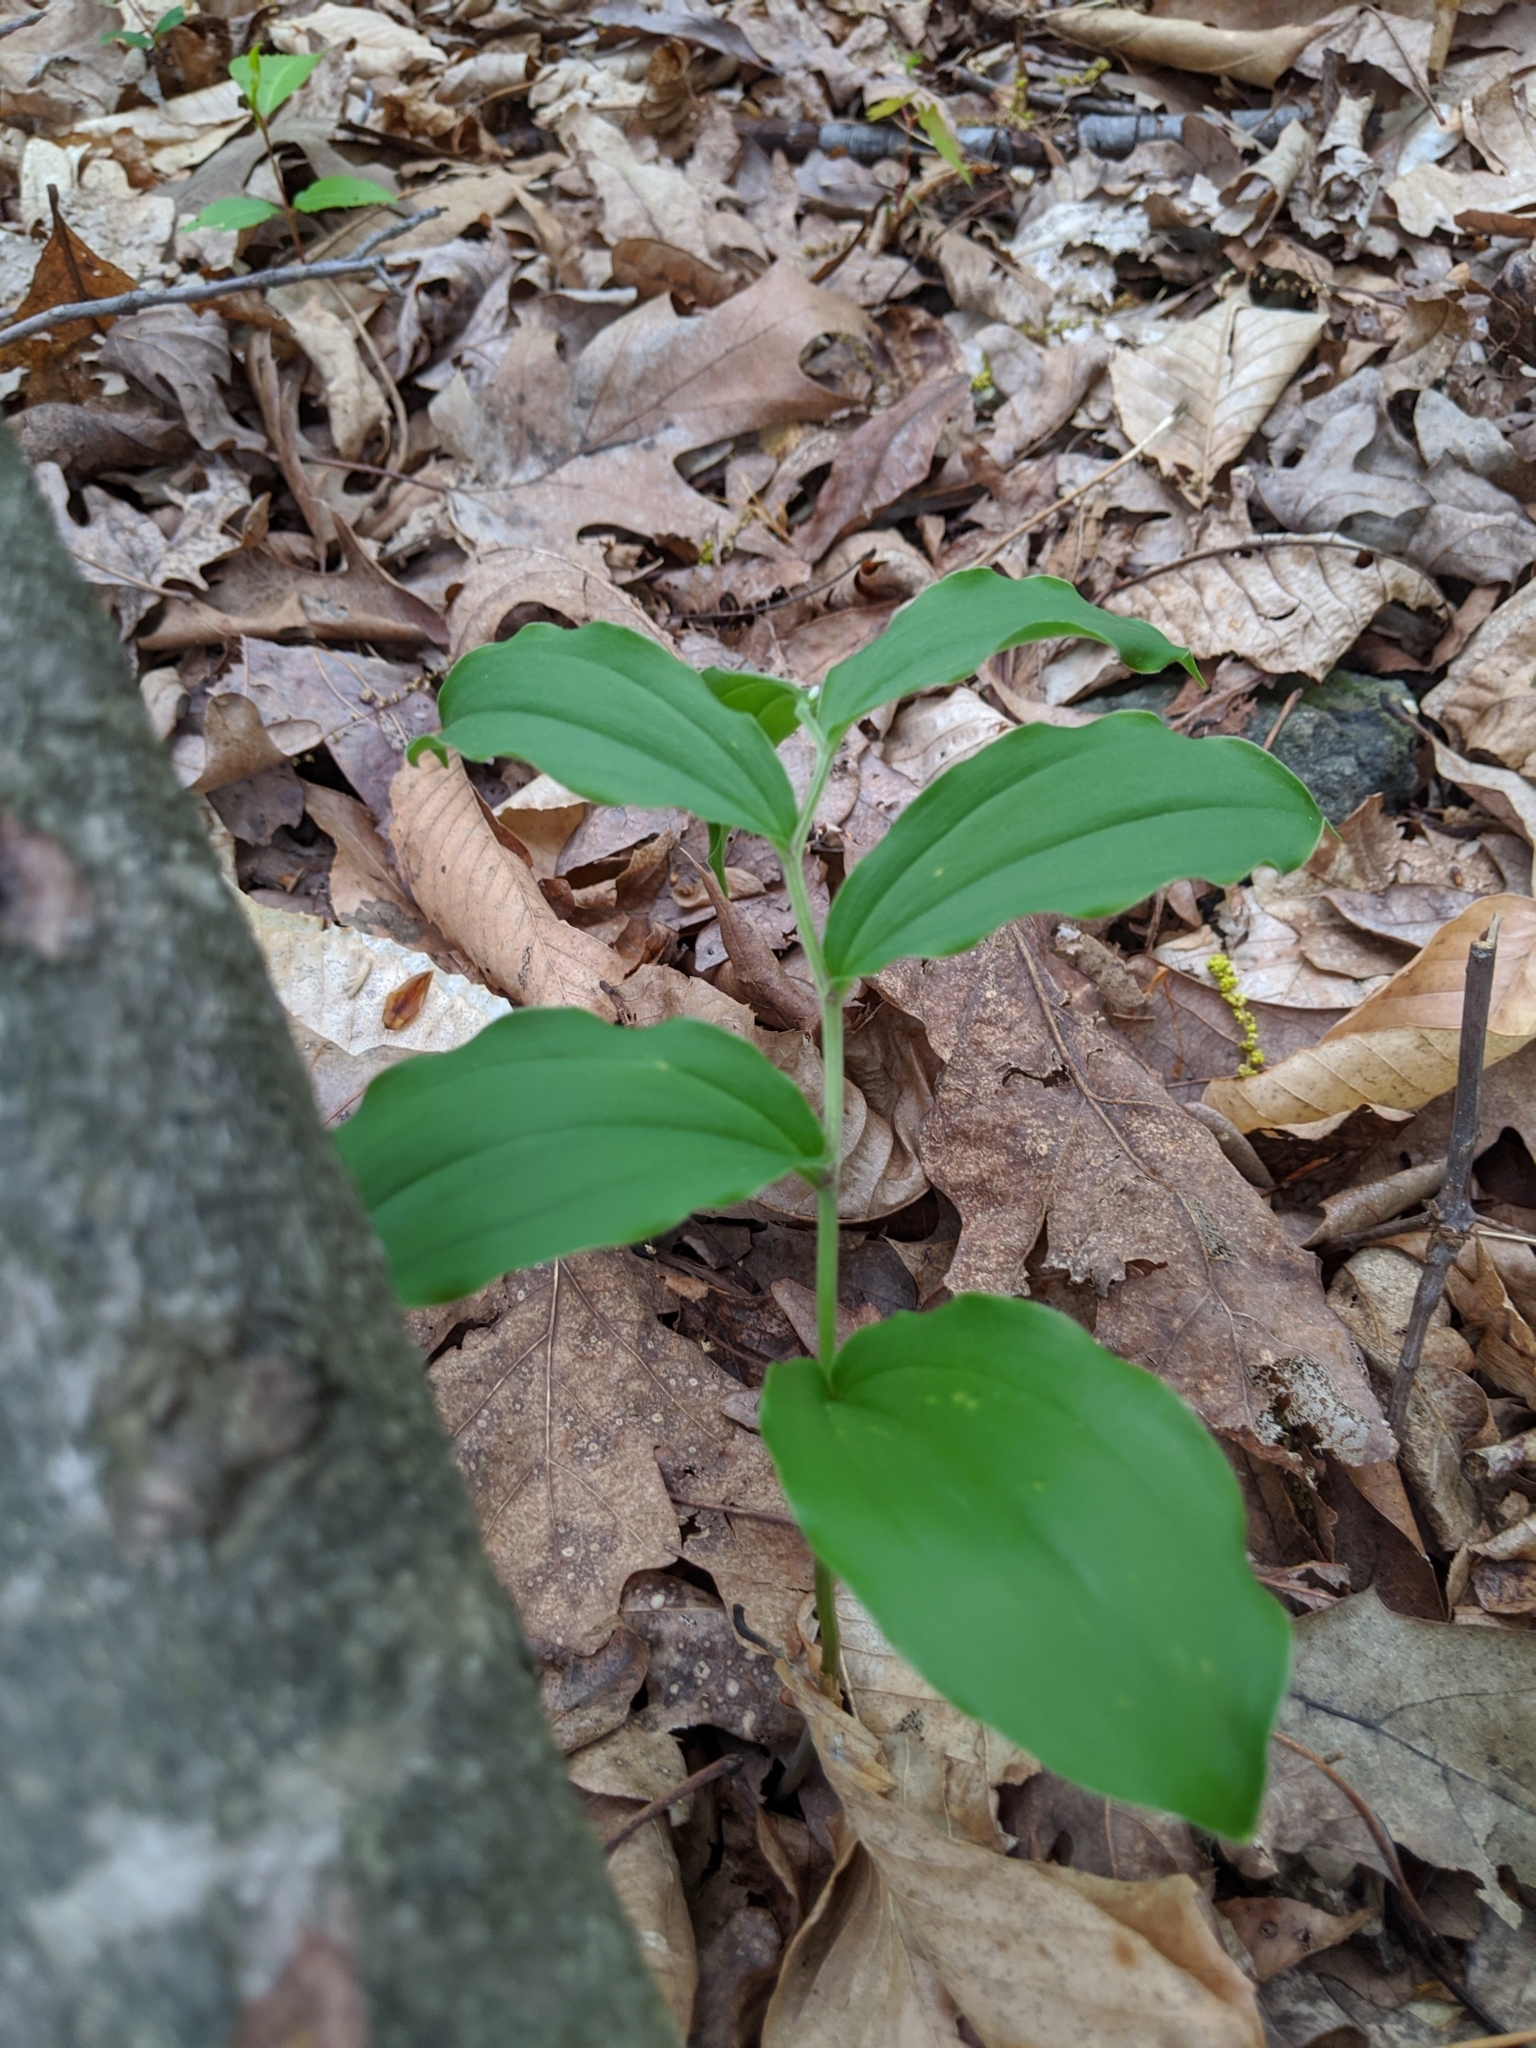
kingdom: Plantae
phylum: Tracheophyta
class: Liliopsida
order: Asparagales
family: Asparagaceae
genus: Maianthemum
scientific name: Maianthemum racemosum
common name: False spikenard
